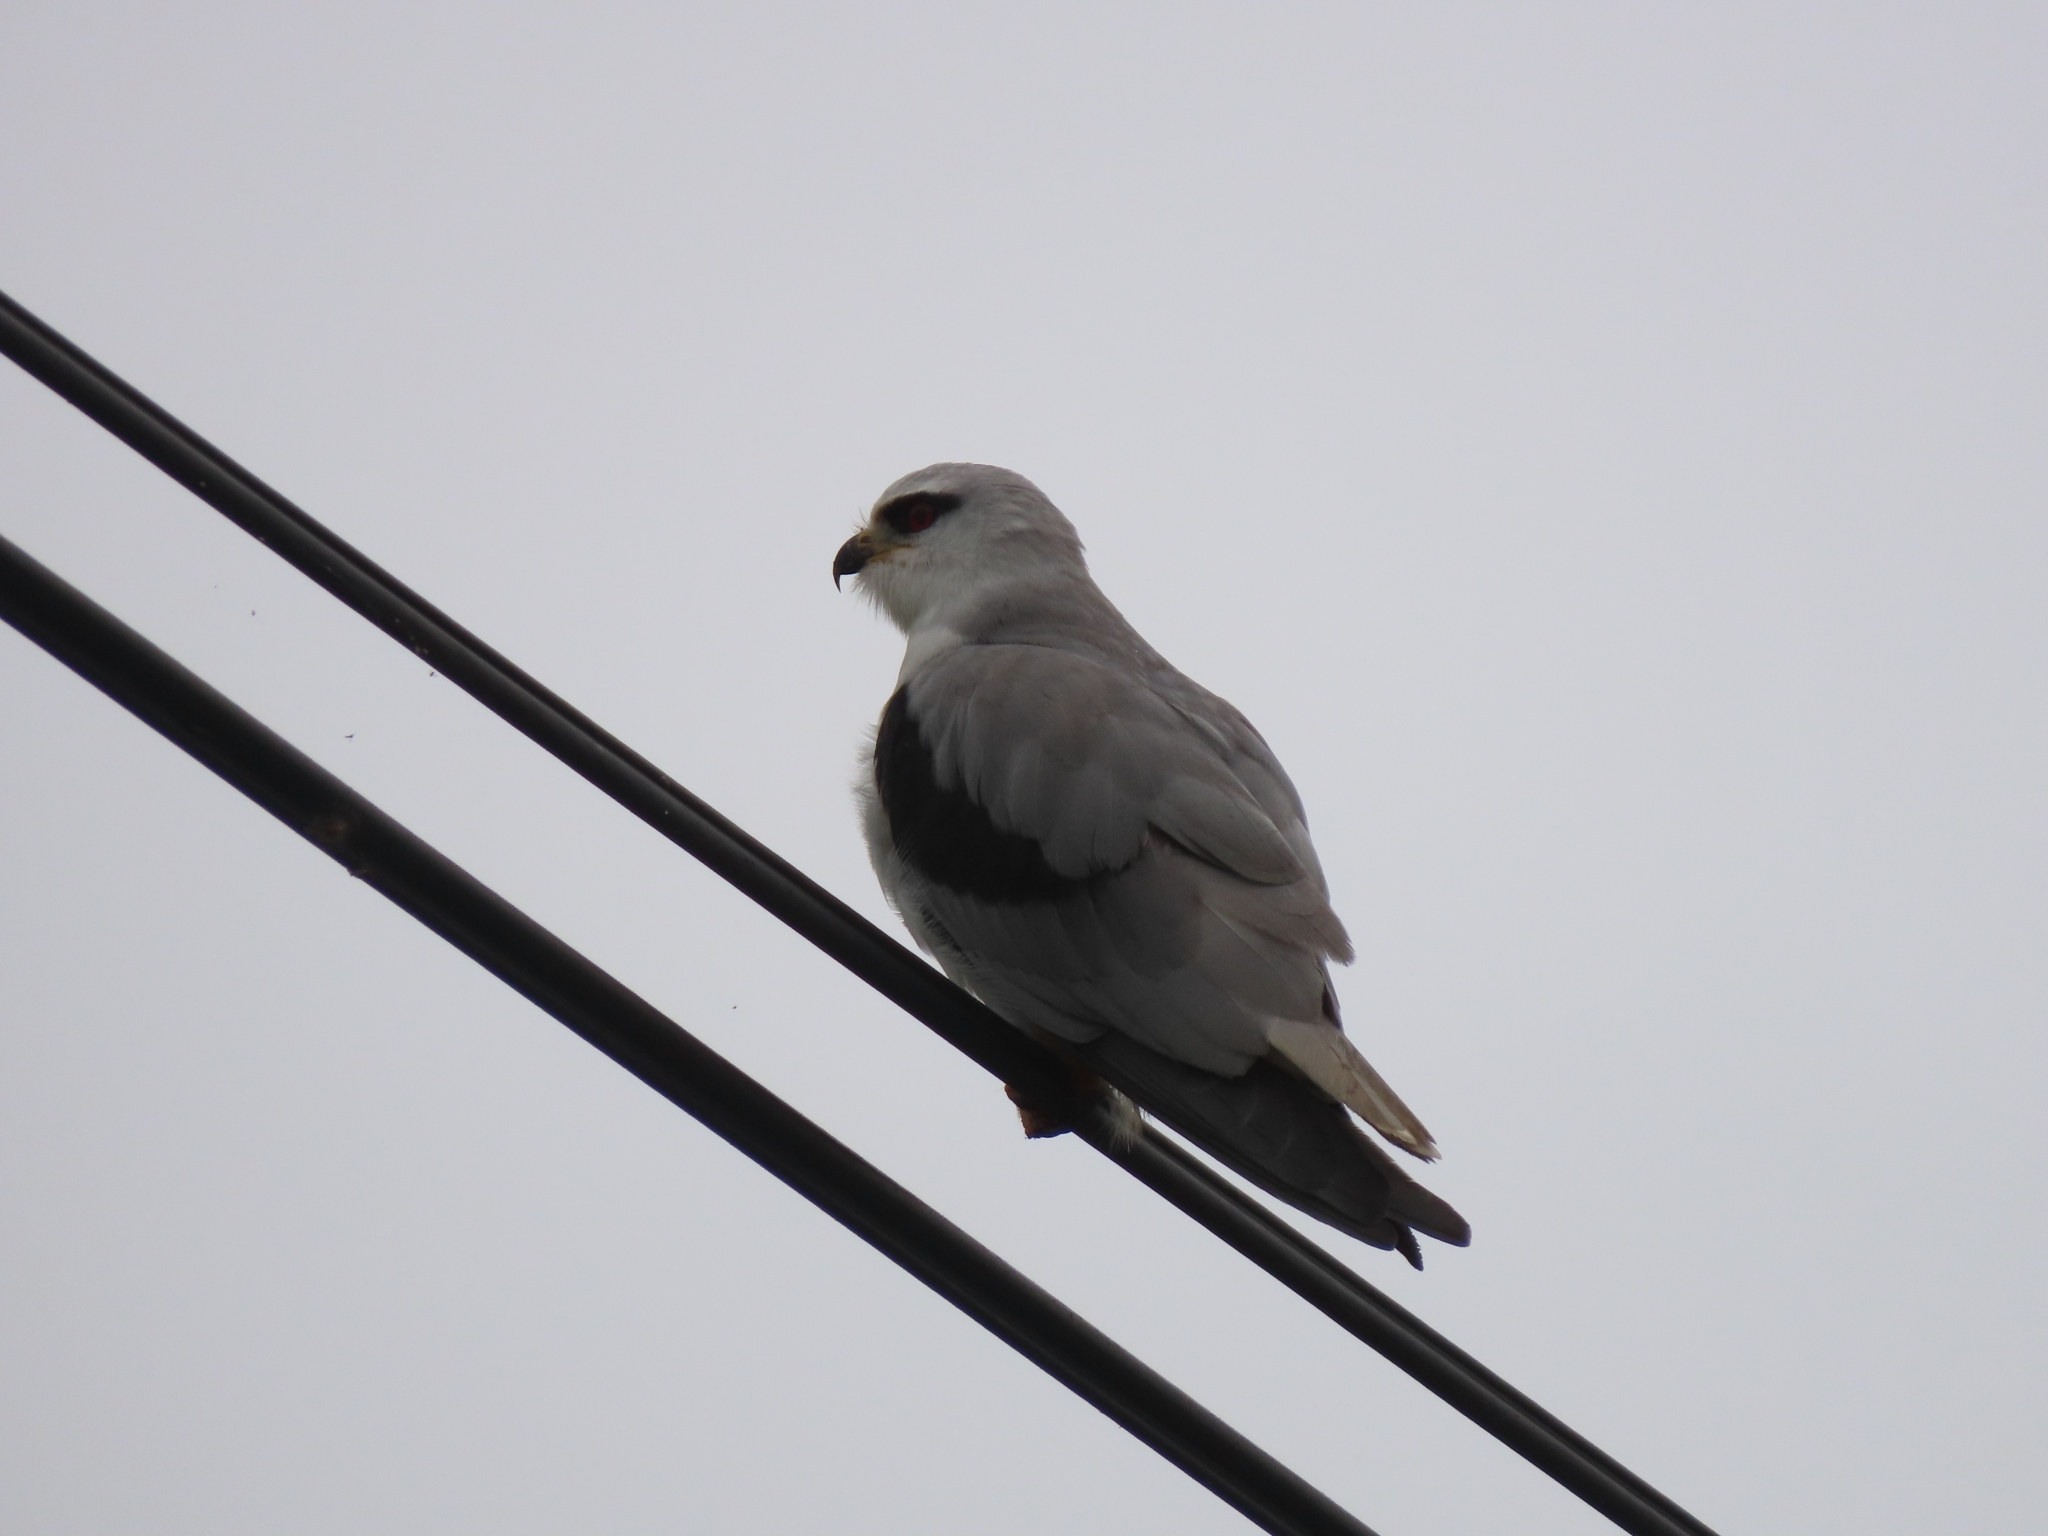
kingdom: Animalia
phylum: Chordata
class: Aves
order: Accipitriformes
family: Accipitridae
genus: Elanus
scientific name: Elanus caeruleus
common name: Black-winged kite
